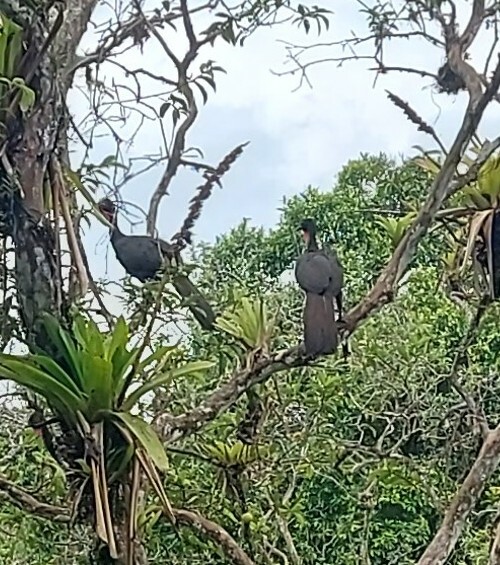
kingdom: Animalia
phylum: Chordata
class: Aves
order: Galliformes
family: Cracidae
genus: Penelope
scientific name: Penelope purpurascens
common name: Crested guan
